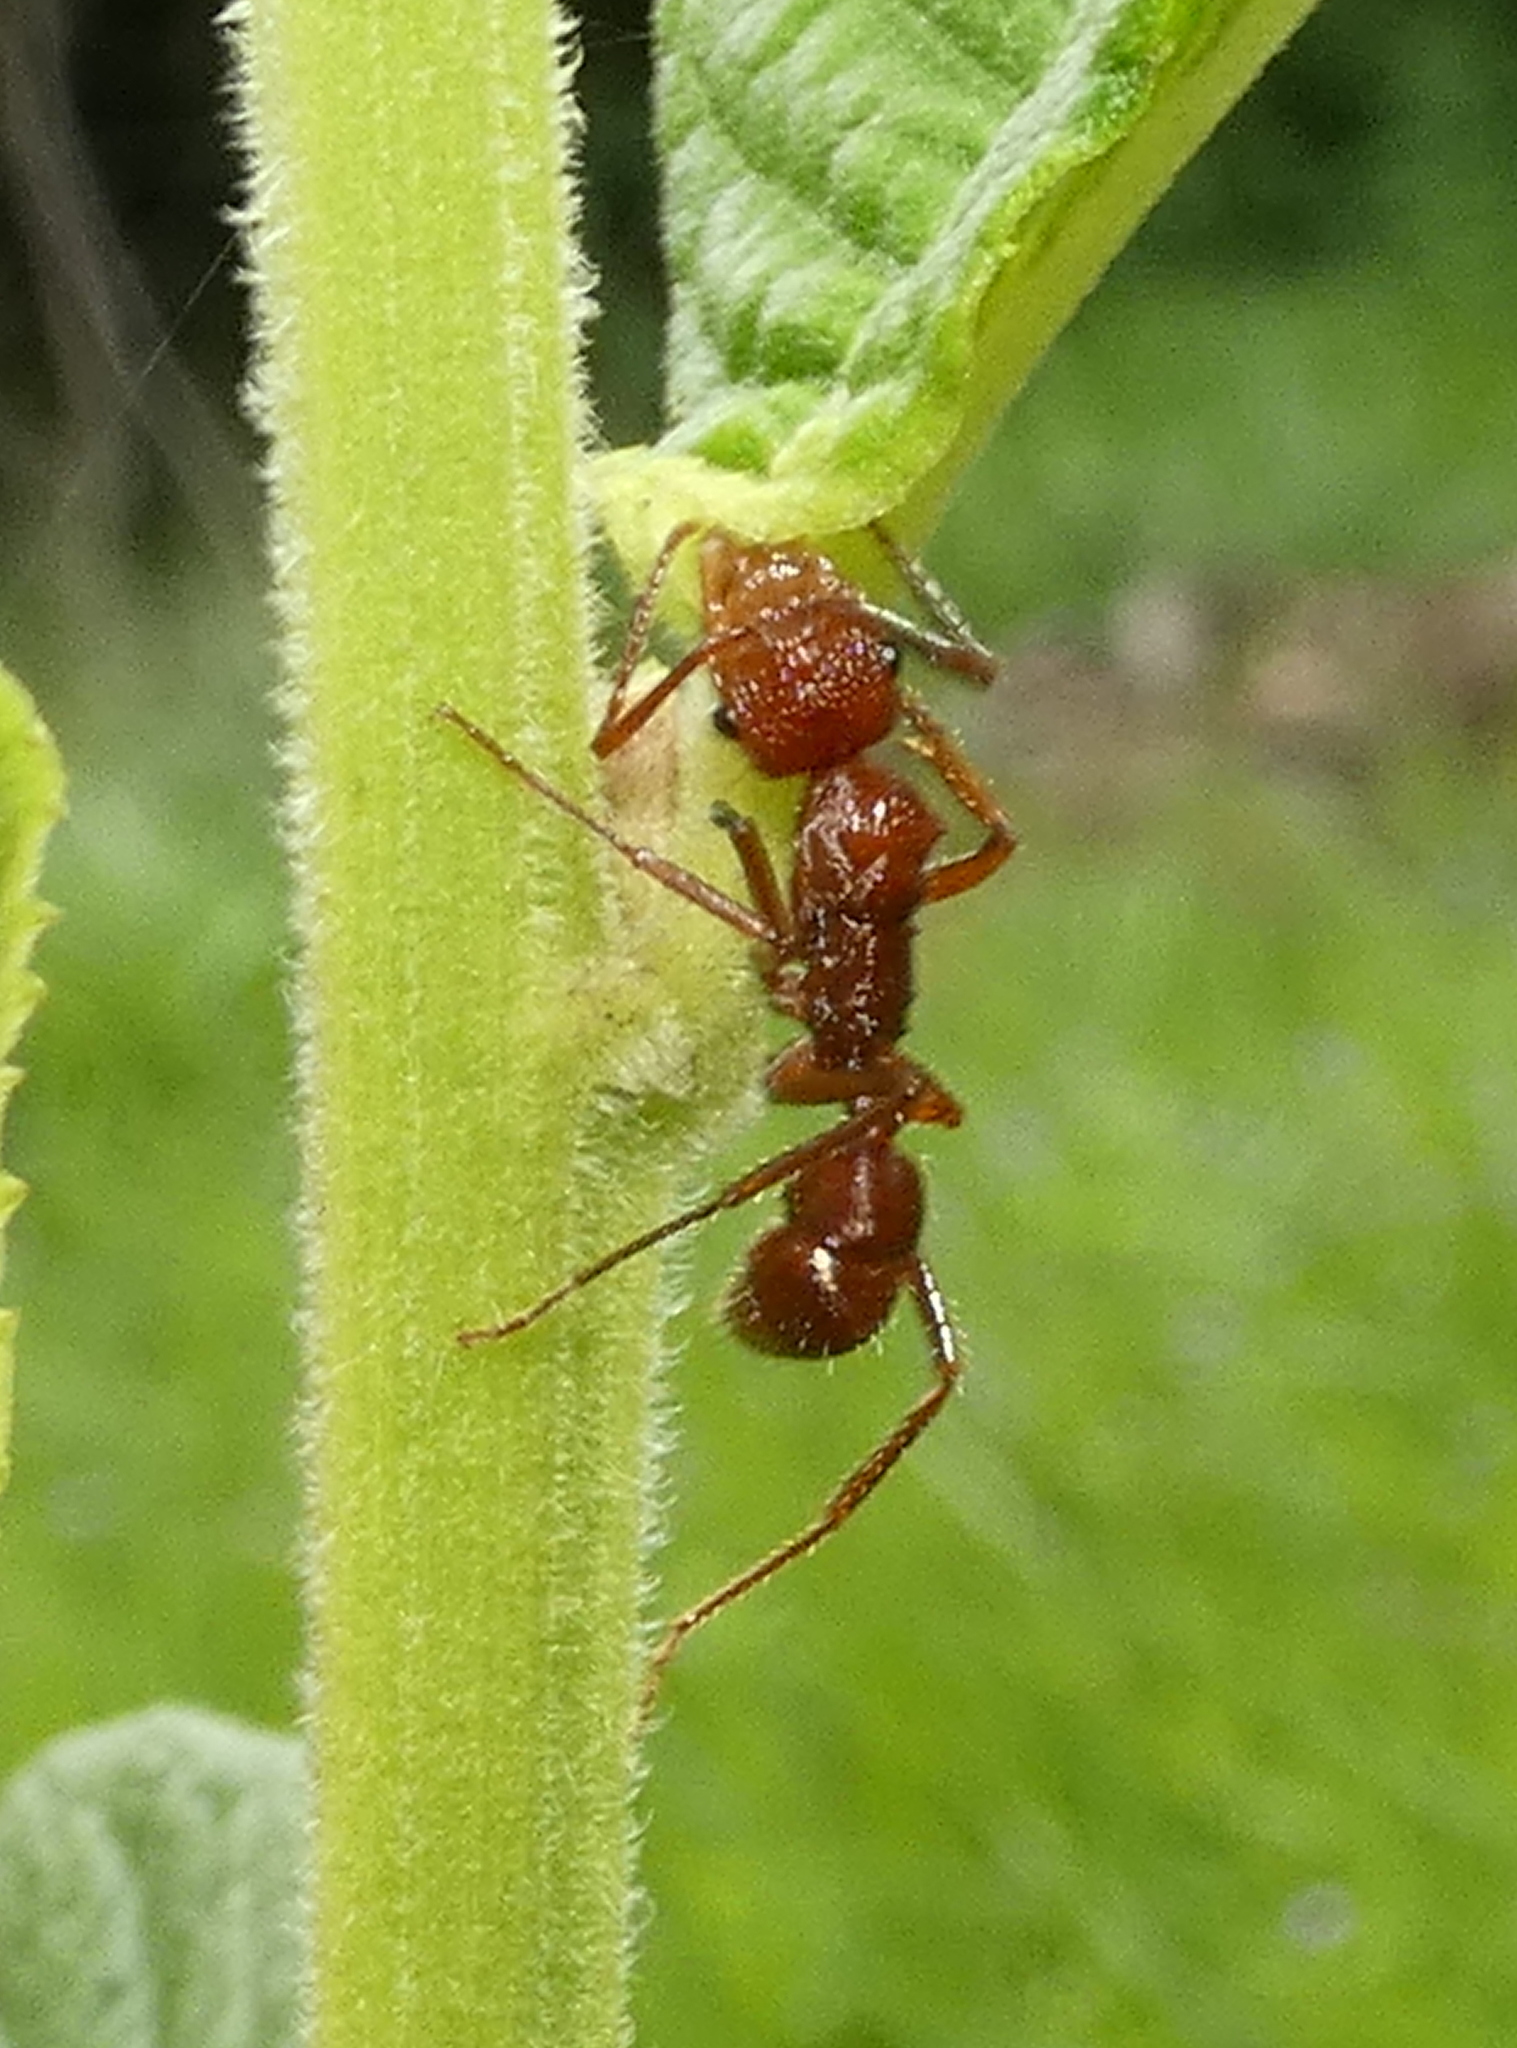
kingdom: Animalia
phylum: Arthropoda
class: Insecta
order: Hymenoptera
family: Formicidae
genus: Ectatomma
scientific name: Ectatomma tuberculatum
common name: Ant
